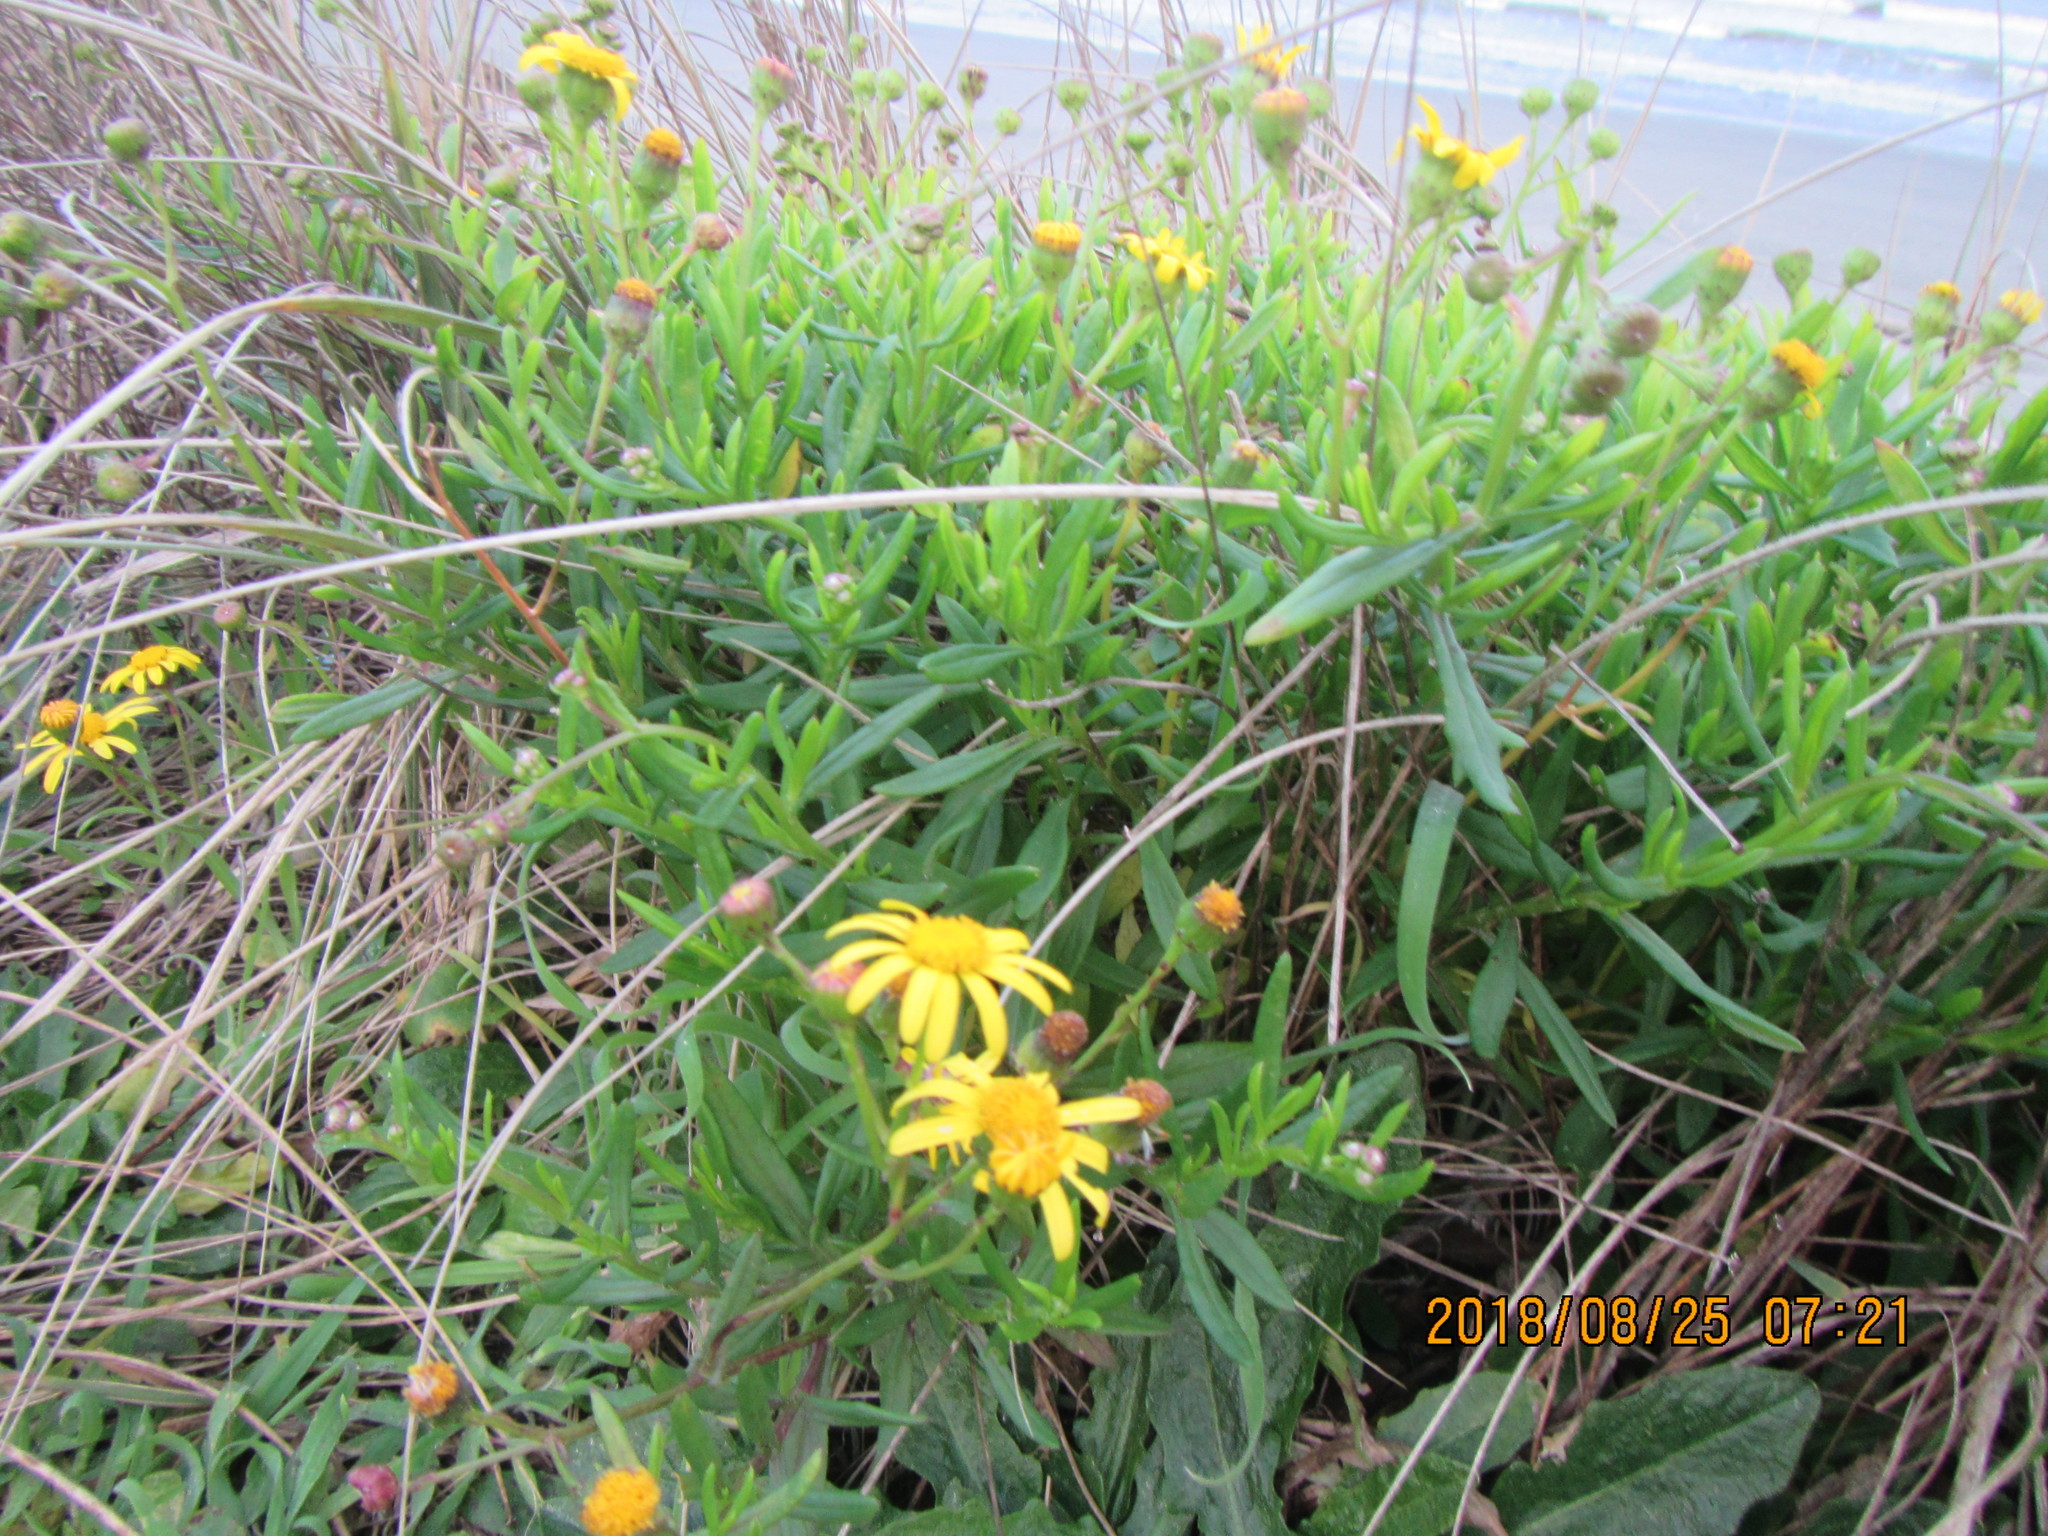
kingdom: Plantae
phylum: Tracheophyta
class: Magnoliopsida
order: Asterales
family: Asteraceae
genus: Senecio
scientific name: Senecio skirrhodon
